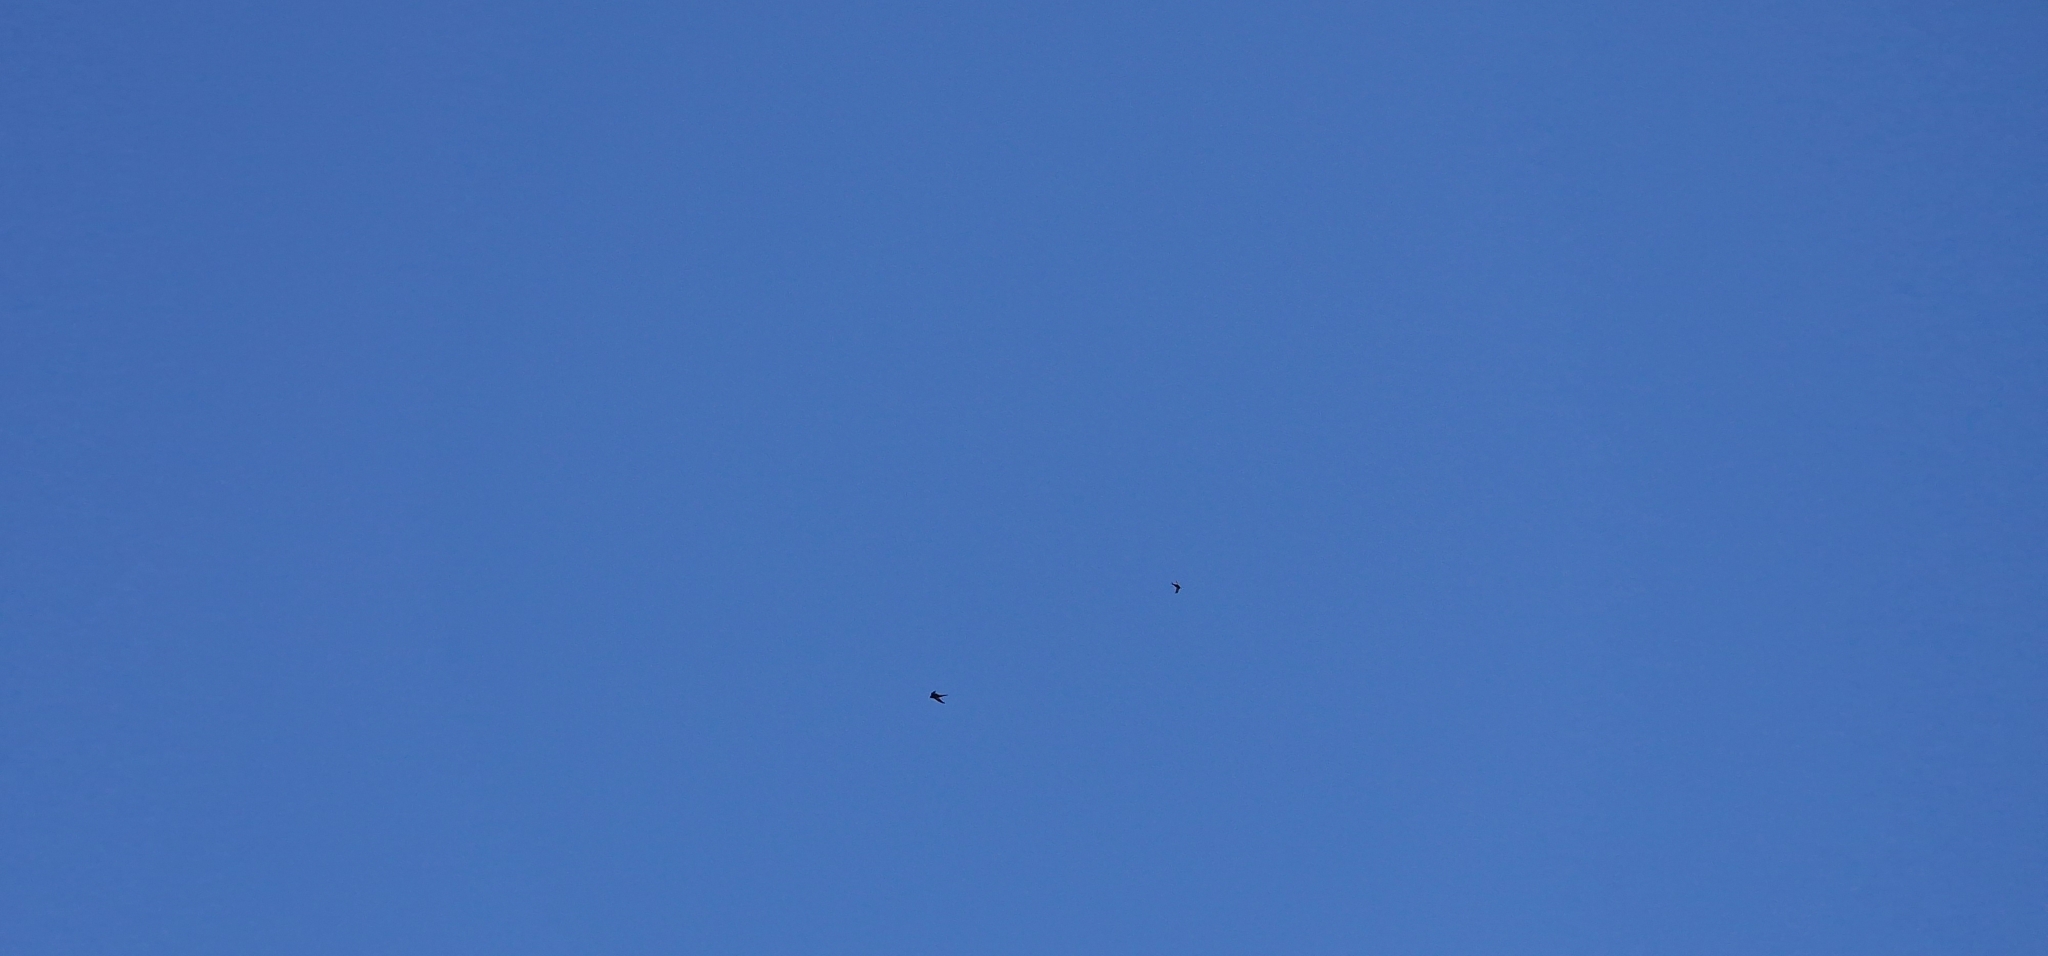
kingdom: Animalia
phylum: Chordata
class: Aves
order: Apodiformes
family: Apodidae
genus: Apus
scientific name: Apus unicolor
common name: Plain swift
